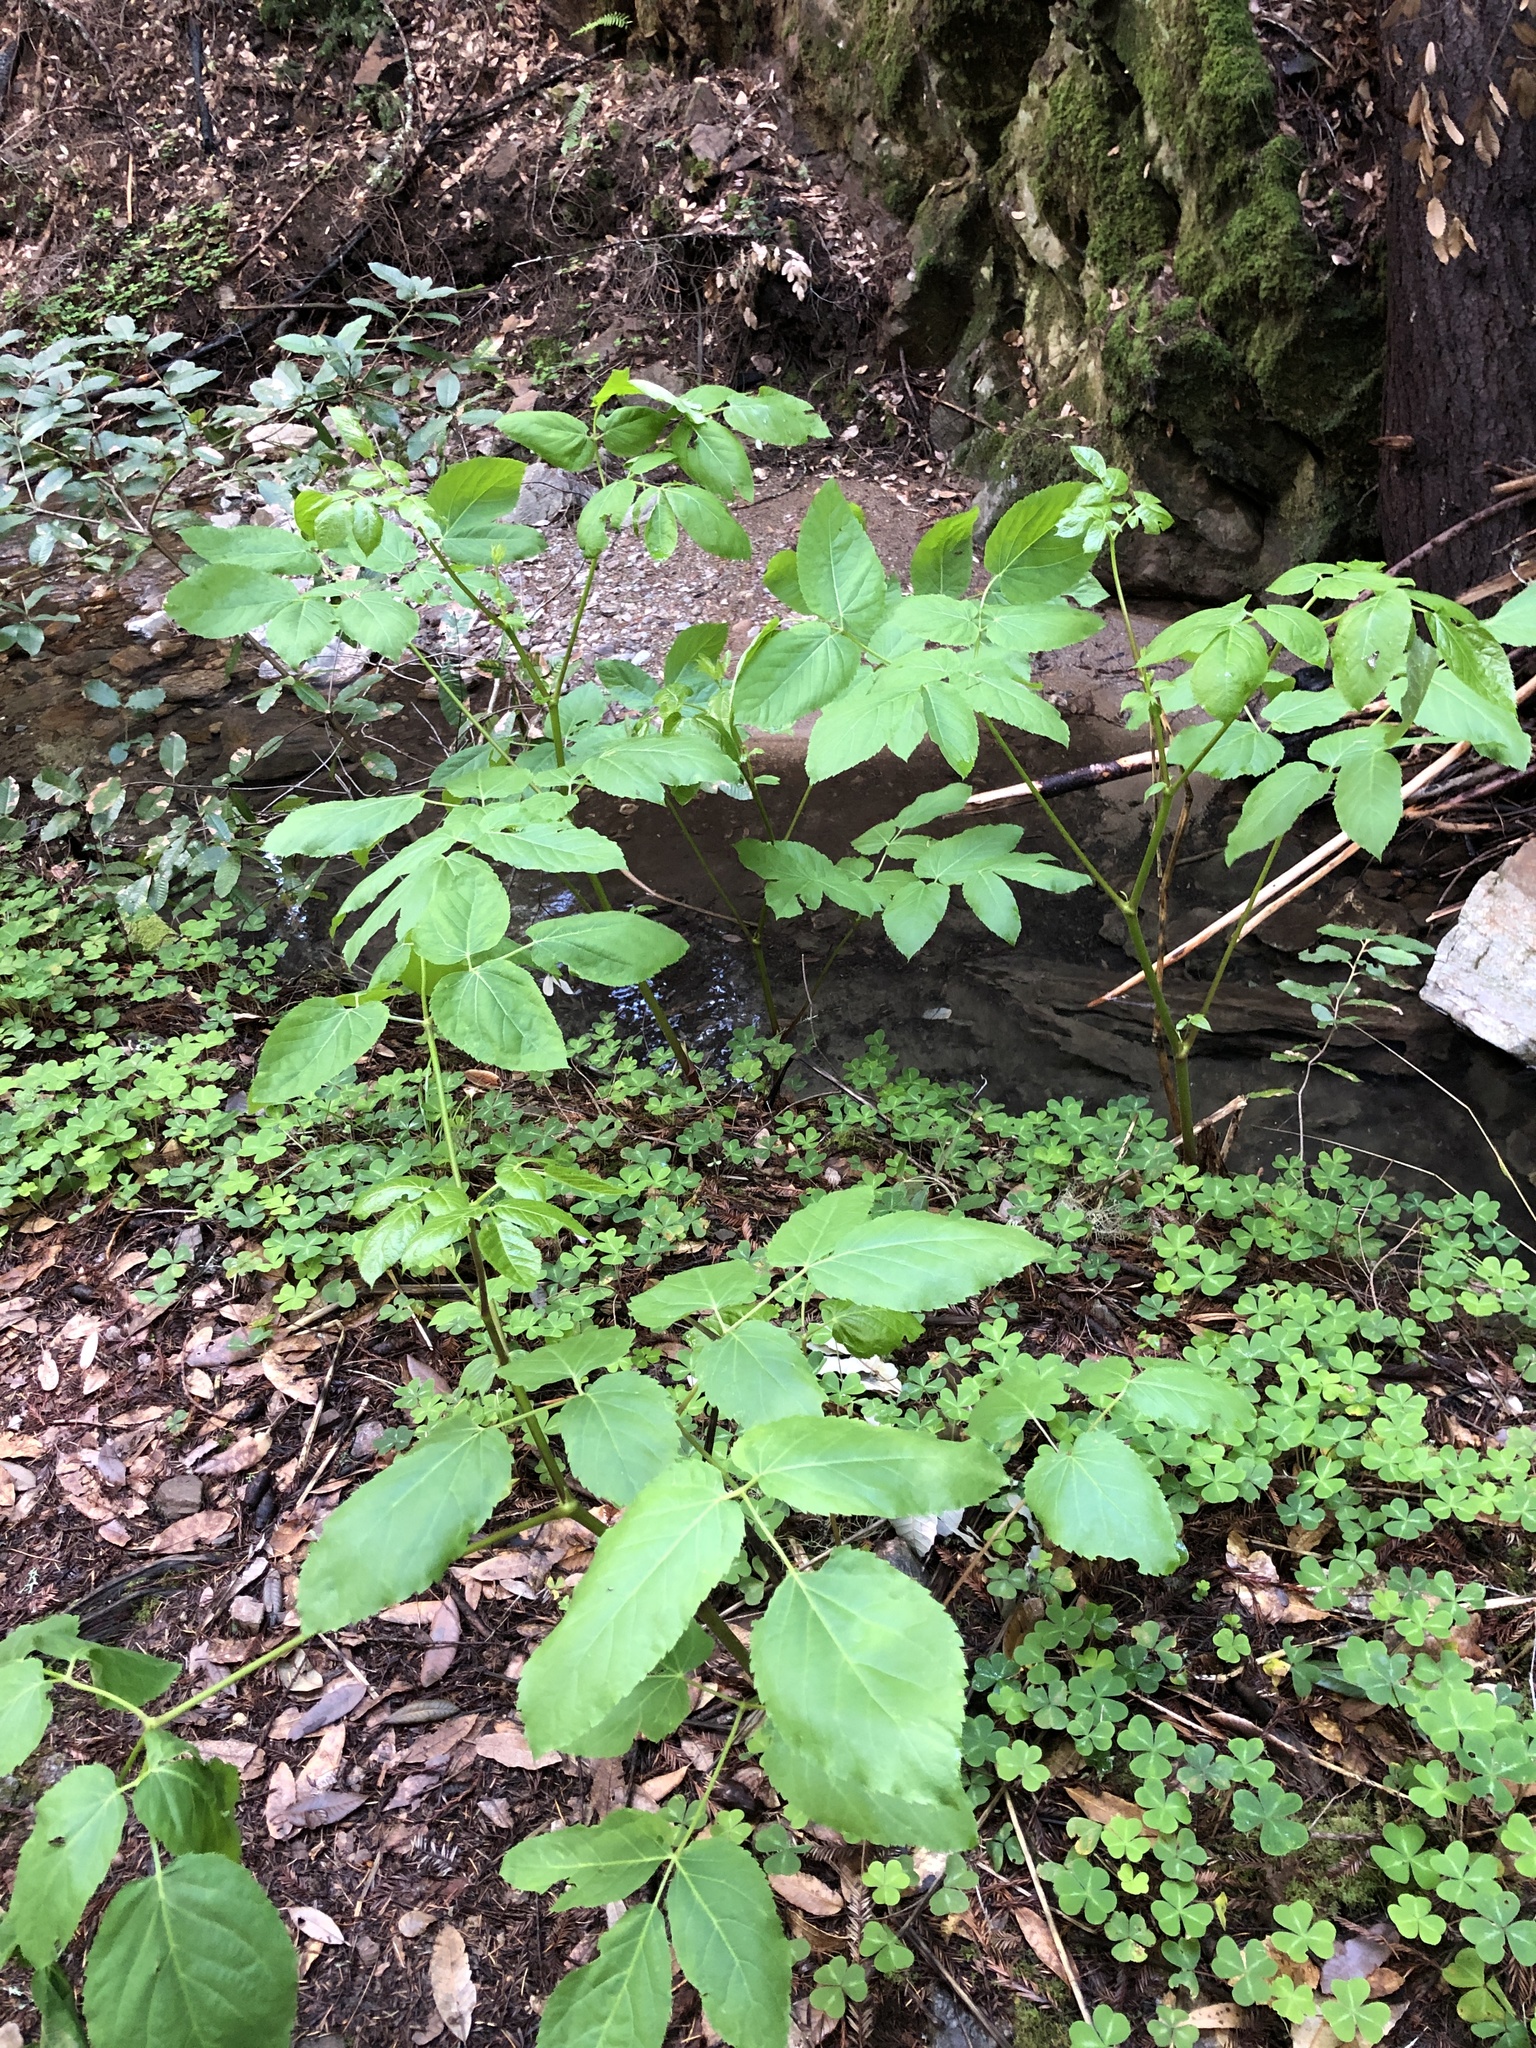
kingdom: Plantae
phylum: Tracheophyta
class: Magnoliopsida
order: Apiales
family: Araliaceae
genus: Aralia
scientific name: Aralia californica
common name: California-ginseng
